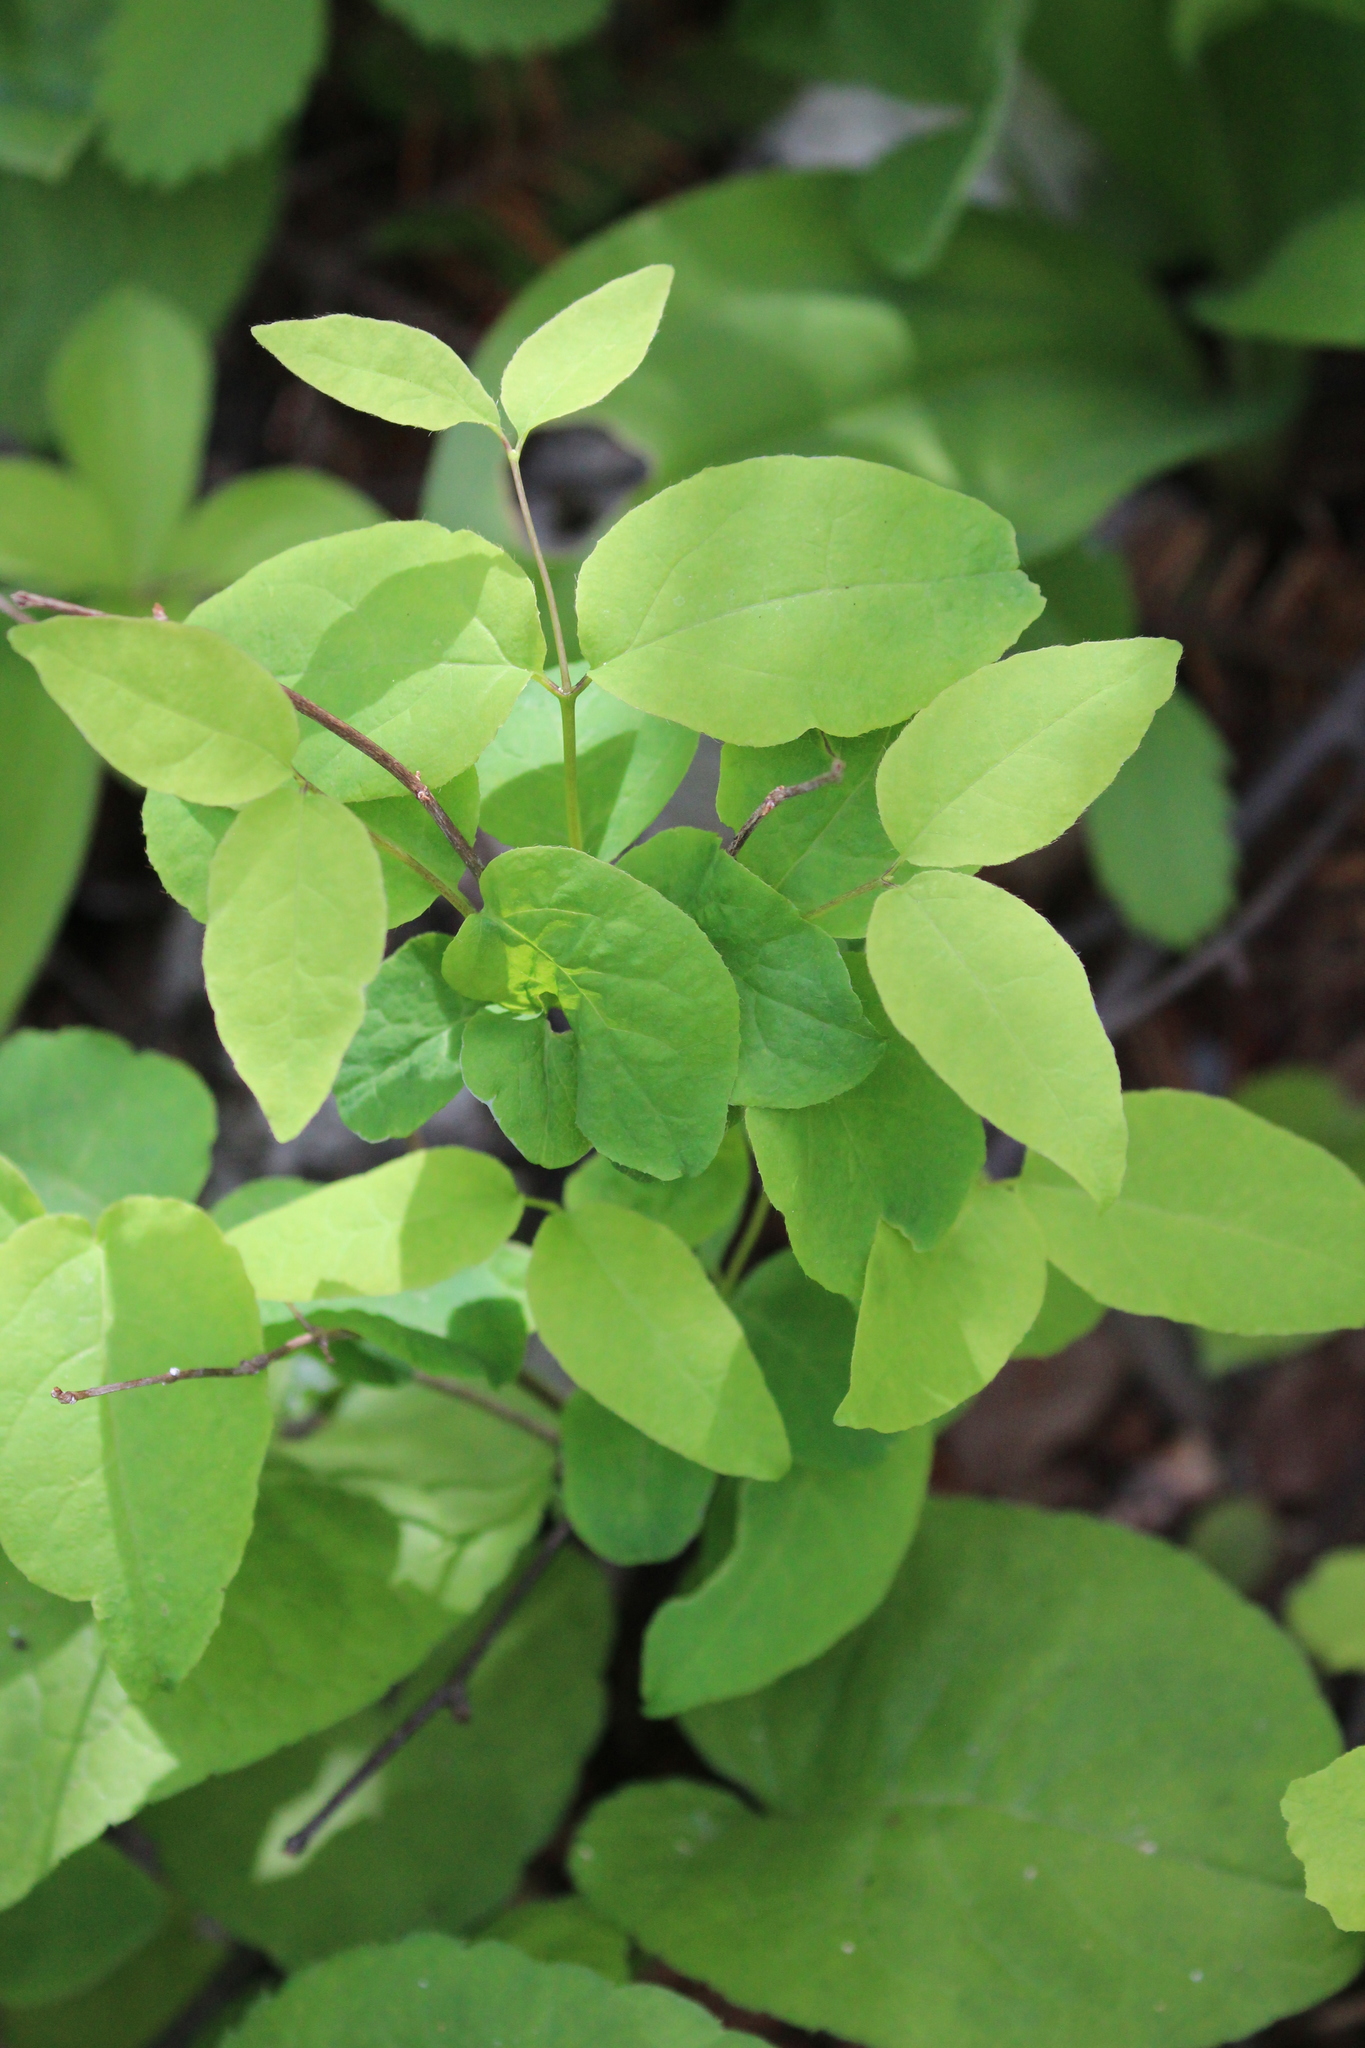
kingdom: Plantae
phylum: Tracheophyta
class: Magnoliopsida
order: Dipsacales
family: Caprifoliaceae
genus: Lonicera
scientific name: Lonicera canadensis
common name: American fly-honeysuckle
